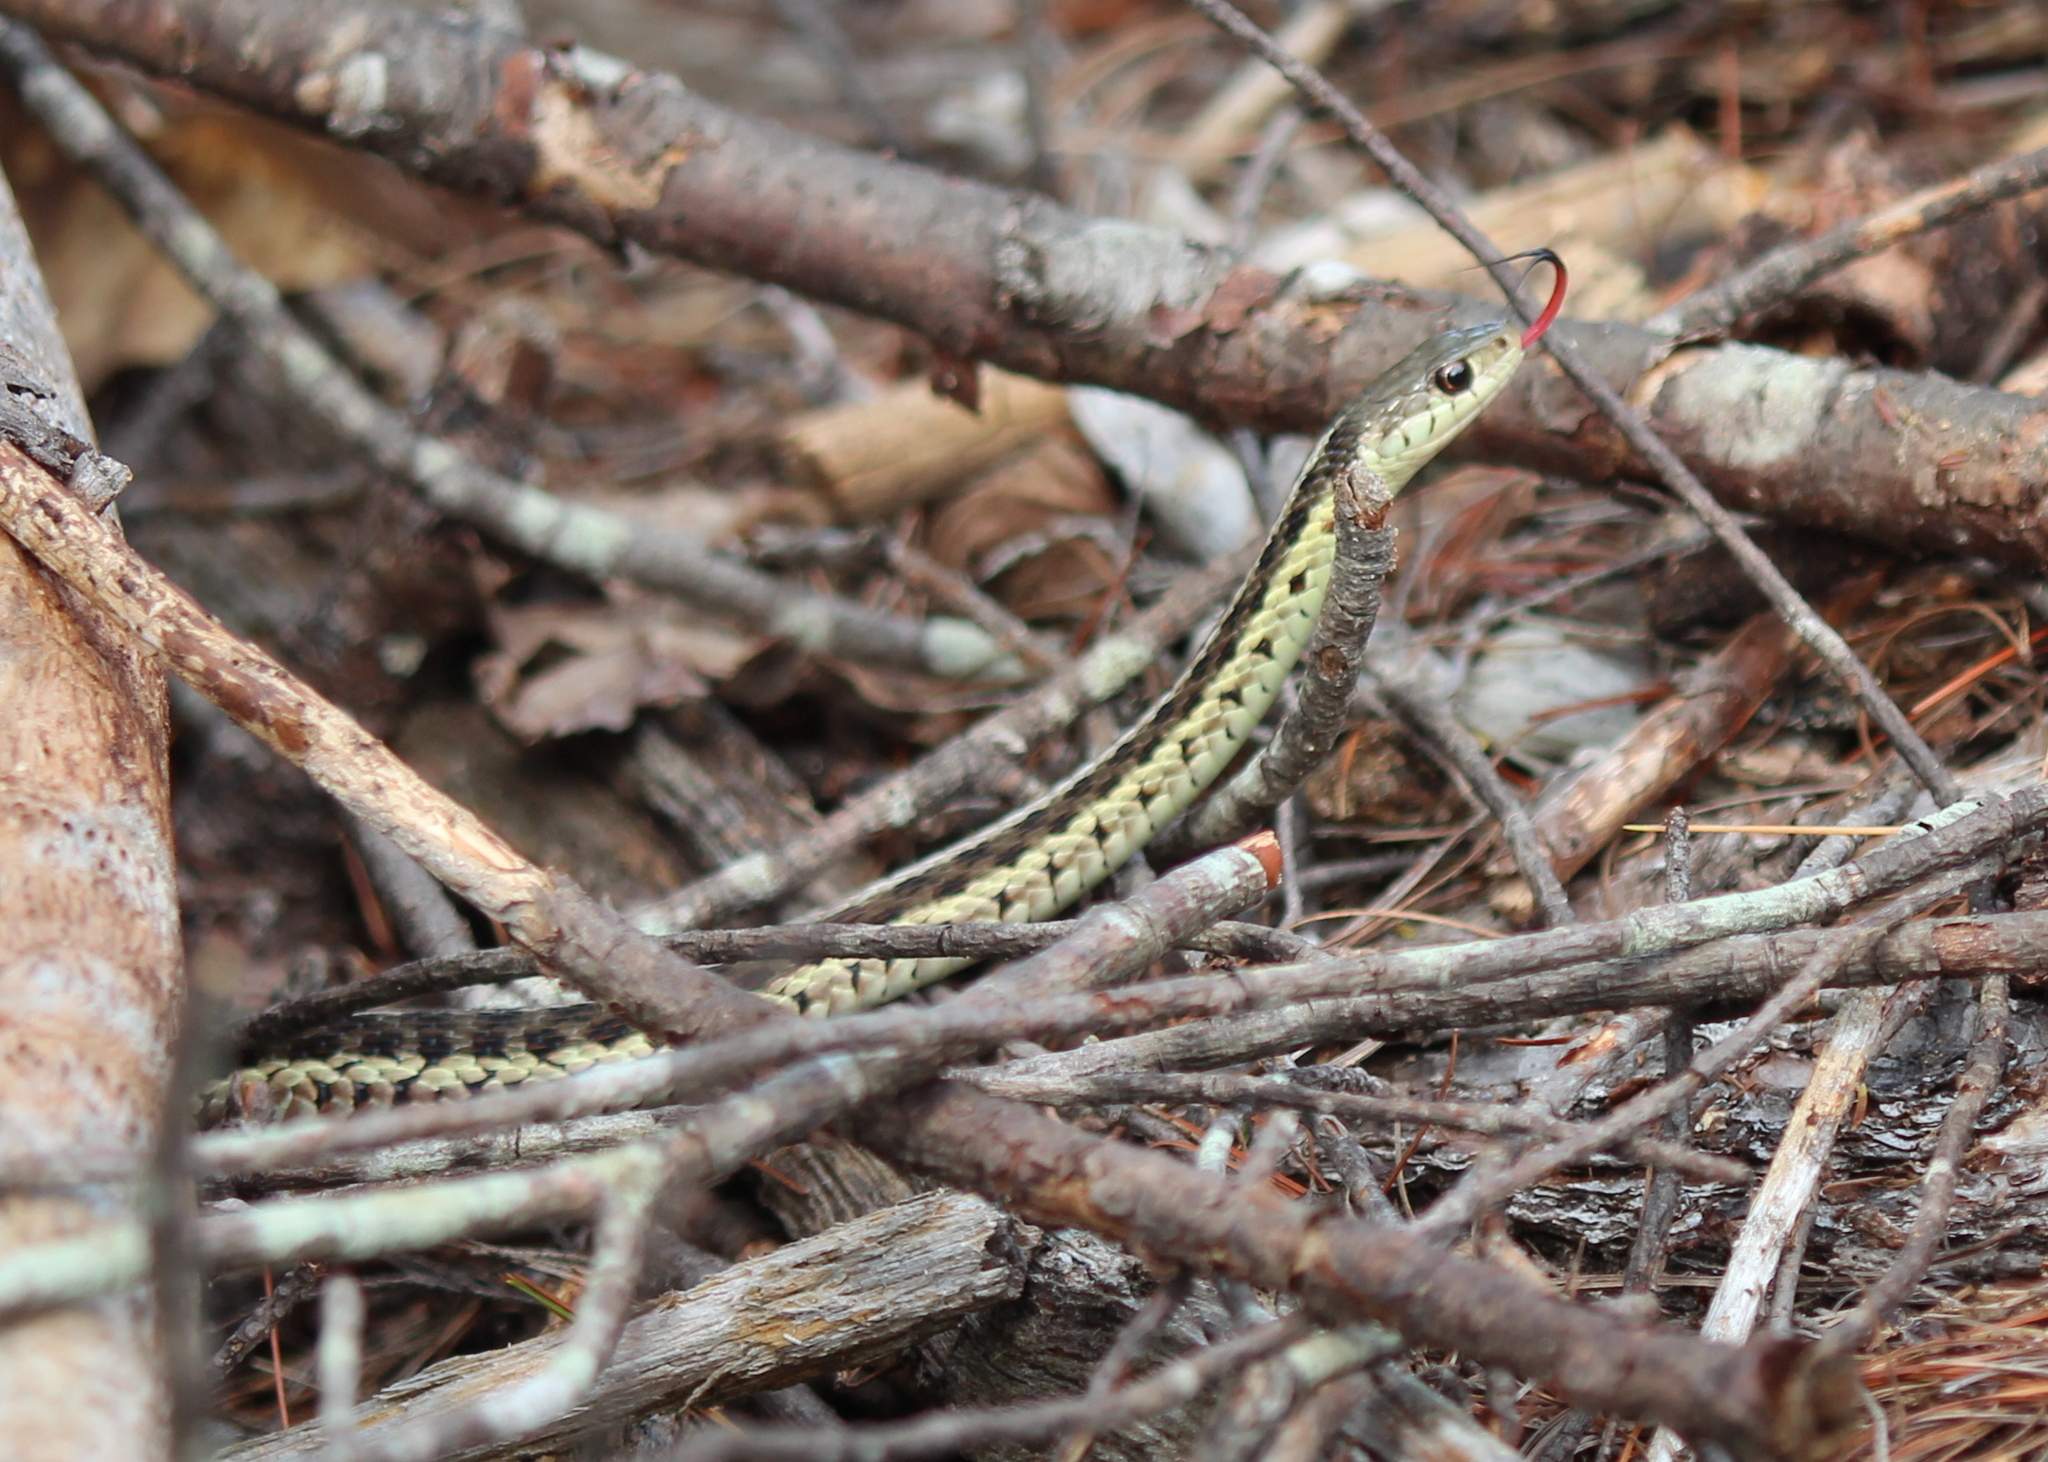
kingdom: Animalia
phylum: Chordata
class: Squamata
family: Colubridae
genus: Thamnophis
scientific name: Thamnophis sirtalis
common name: Common garter snake
